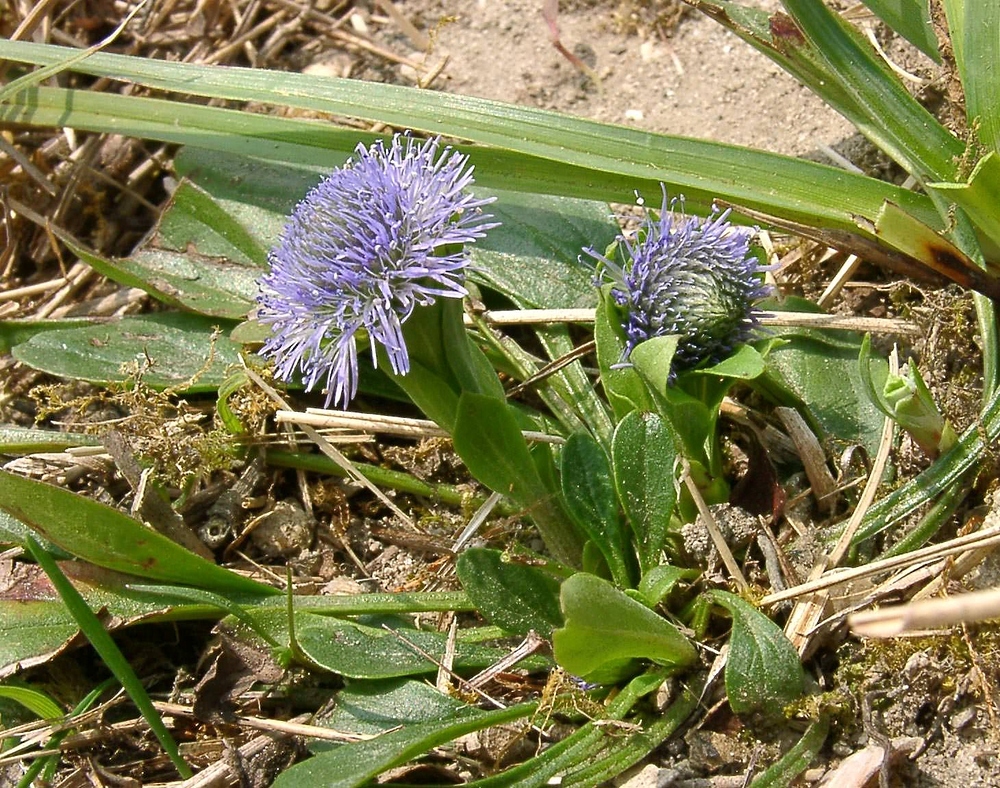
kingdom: Plantae
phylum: Tracheophyta
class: Magnoliopsida
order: Lamiales
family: Plantaginaceae
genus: Globularia
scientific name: Globularia bisnagarica
